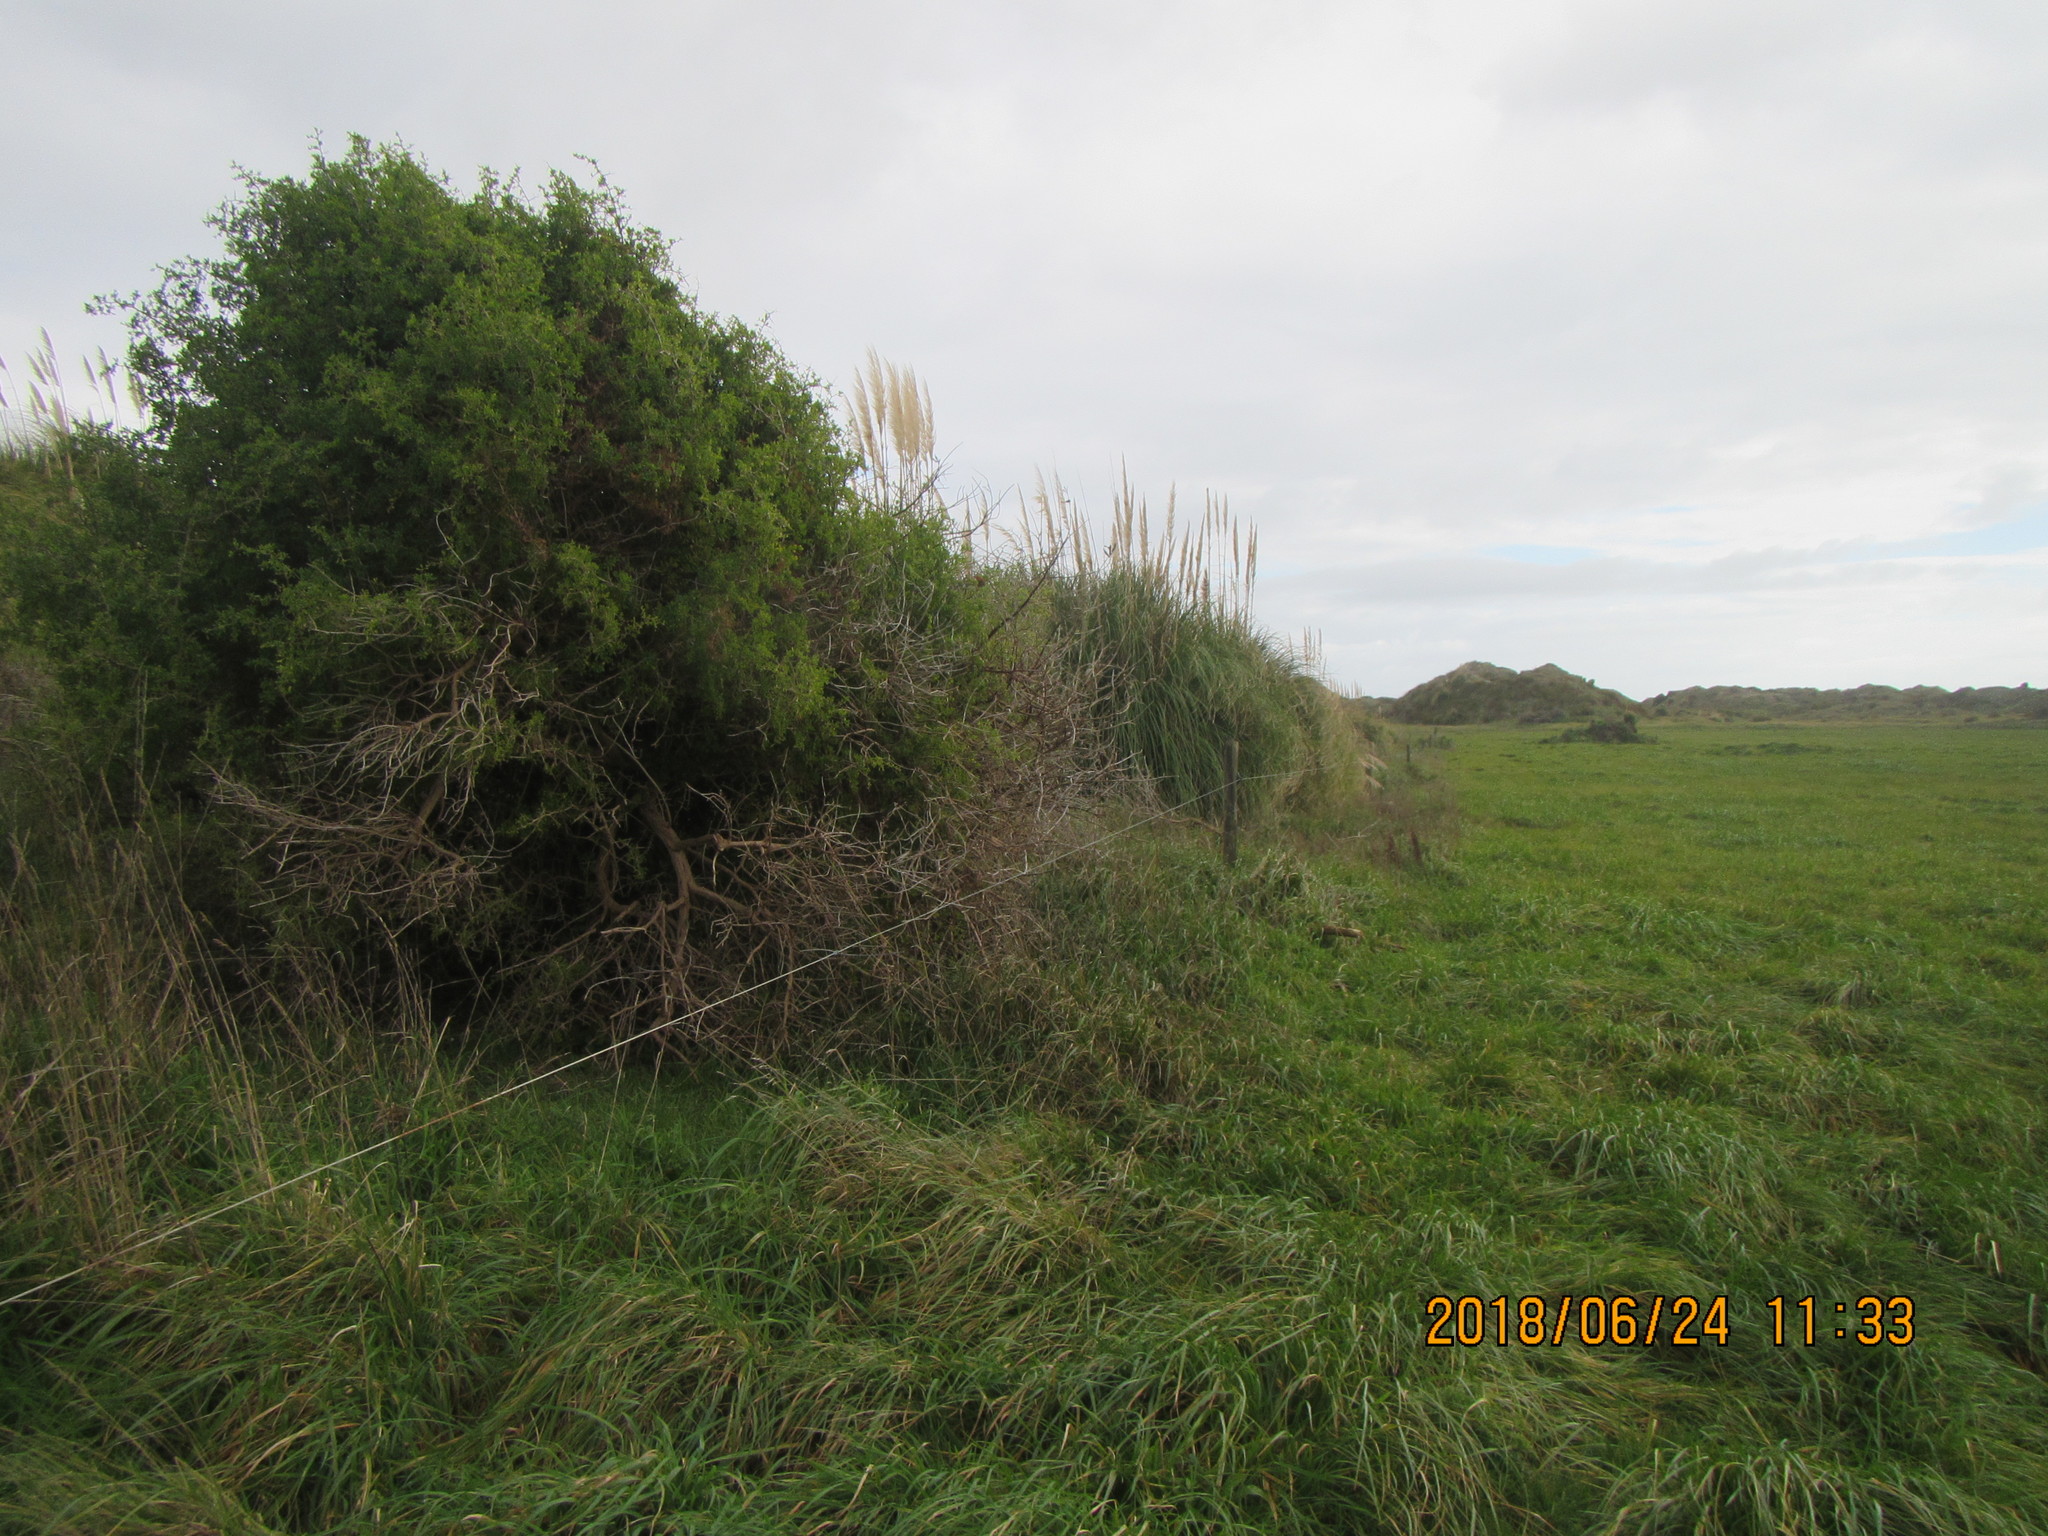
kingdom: Plantae
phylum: Tracheophyta
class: Magnoliopsida
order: Solanales
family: Solanaceae
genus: Lycium
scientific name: Lycium ferocissimum
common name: African boxthorn
